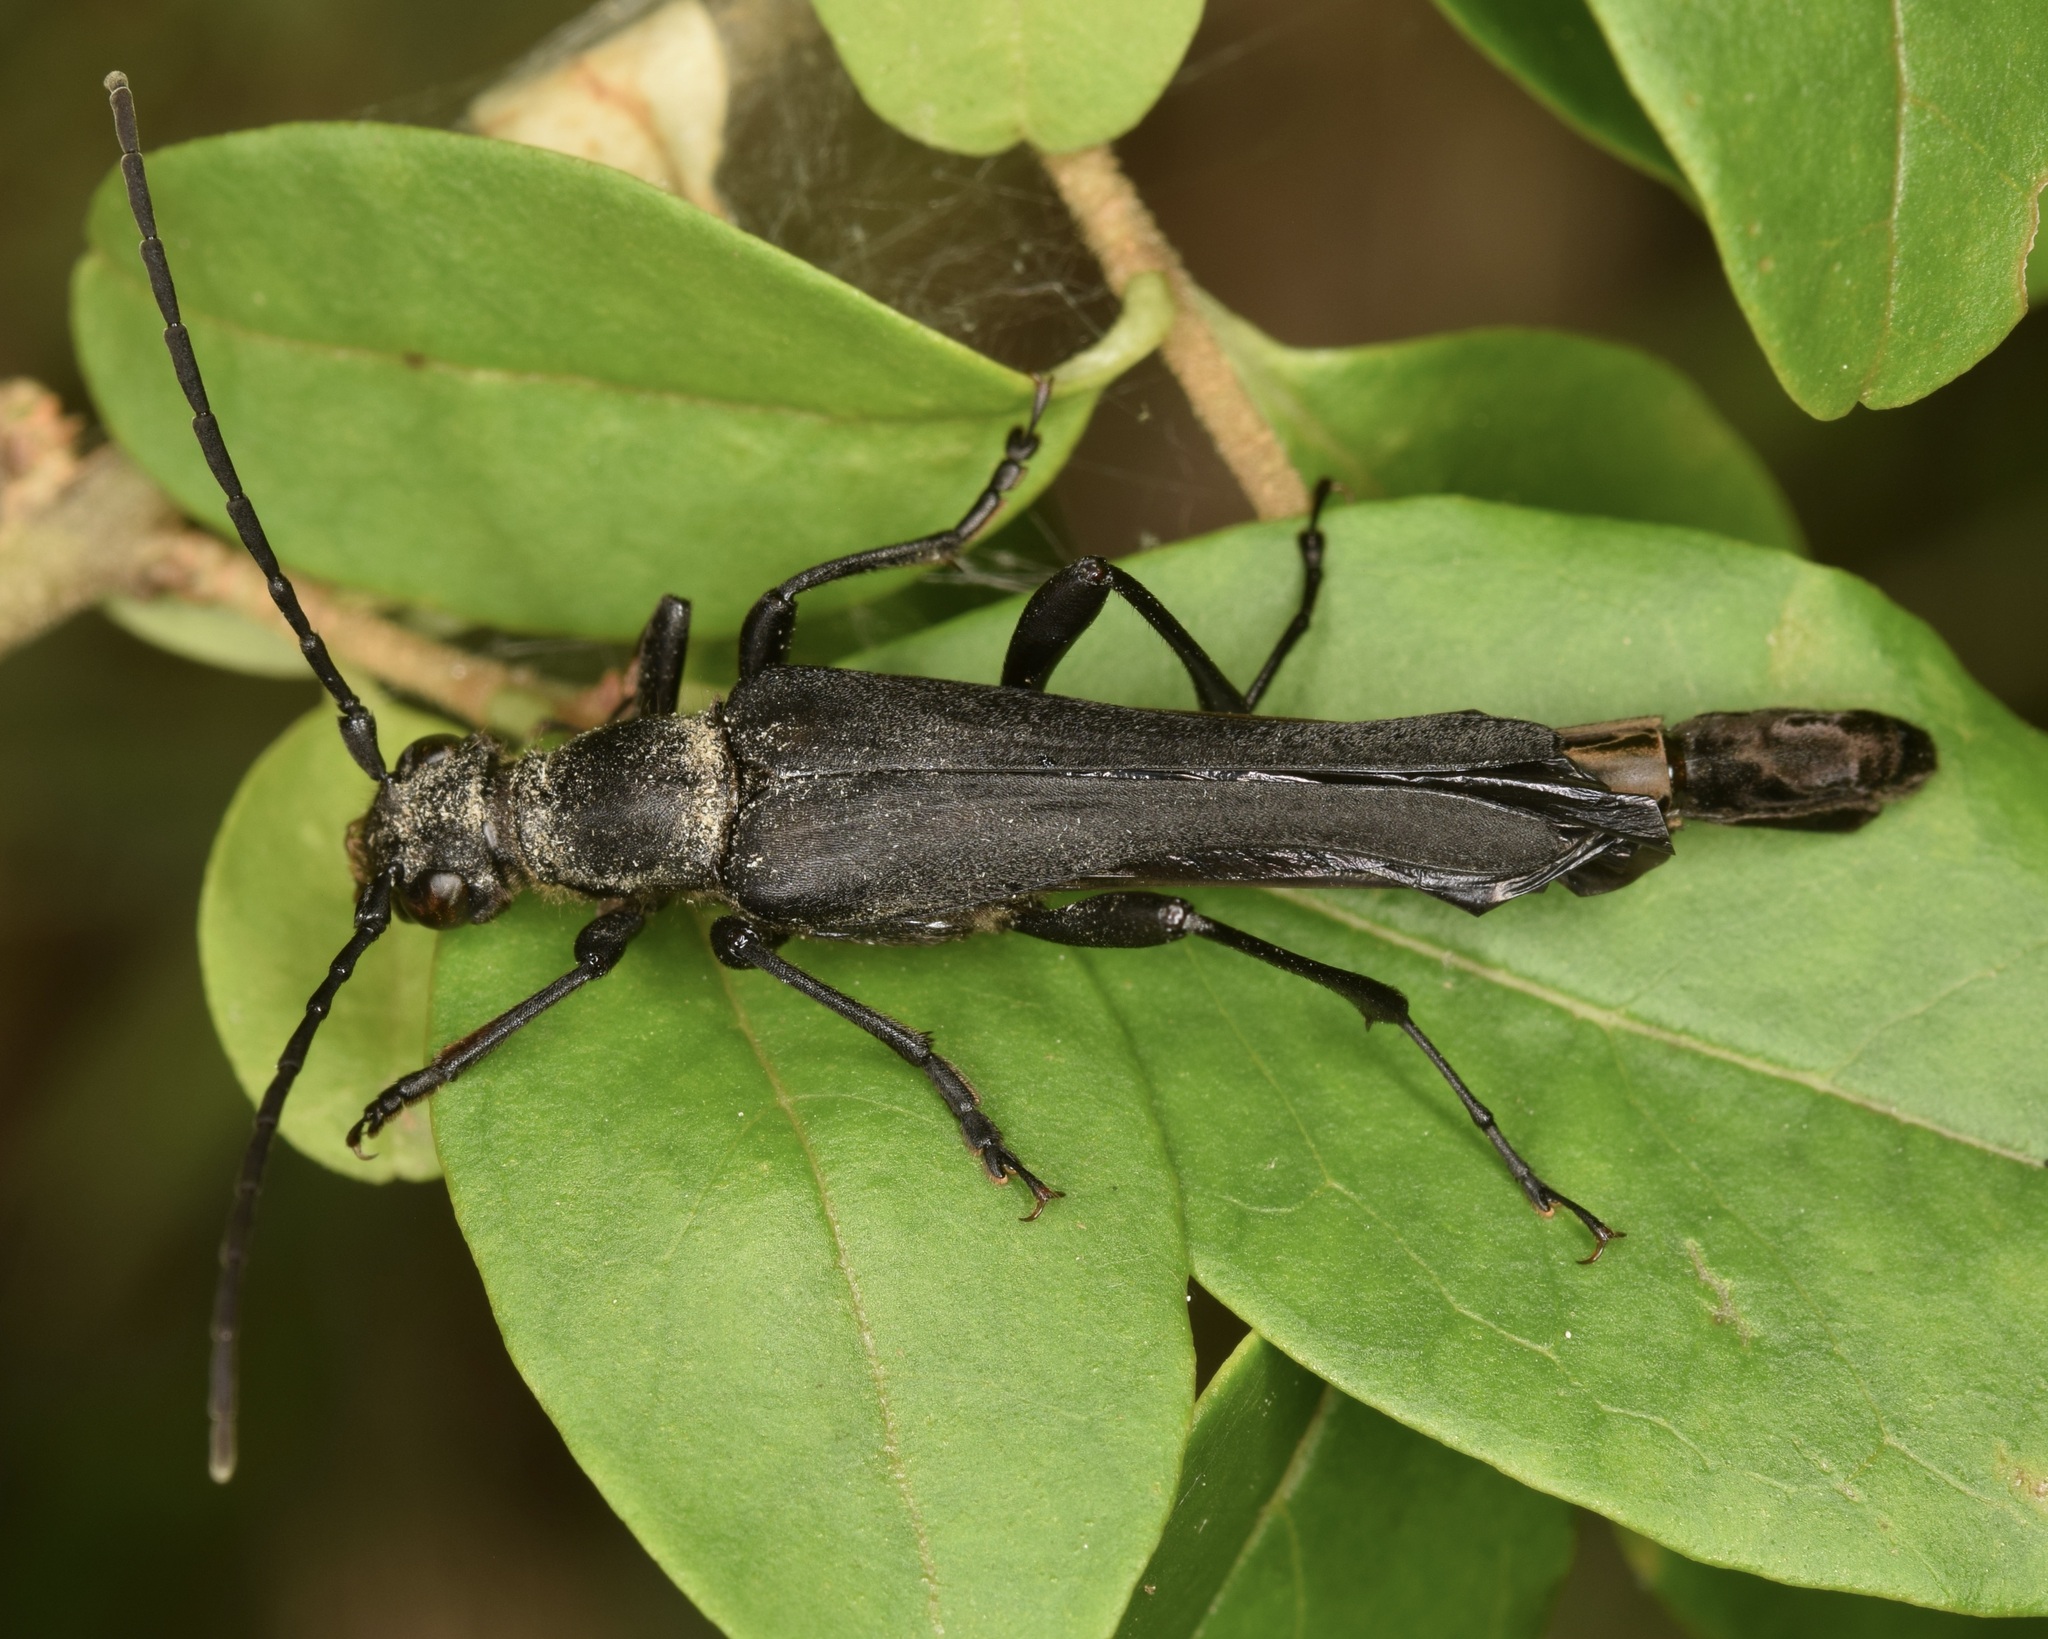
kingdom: Animalia
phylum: Arthropoda
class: Insecta
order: Coleoptera
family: Cerambycidae
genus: Bellamira
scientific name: Bellamira scalaris
